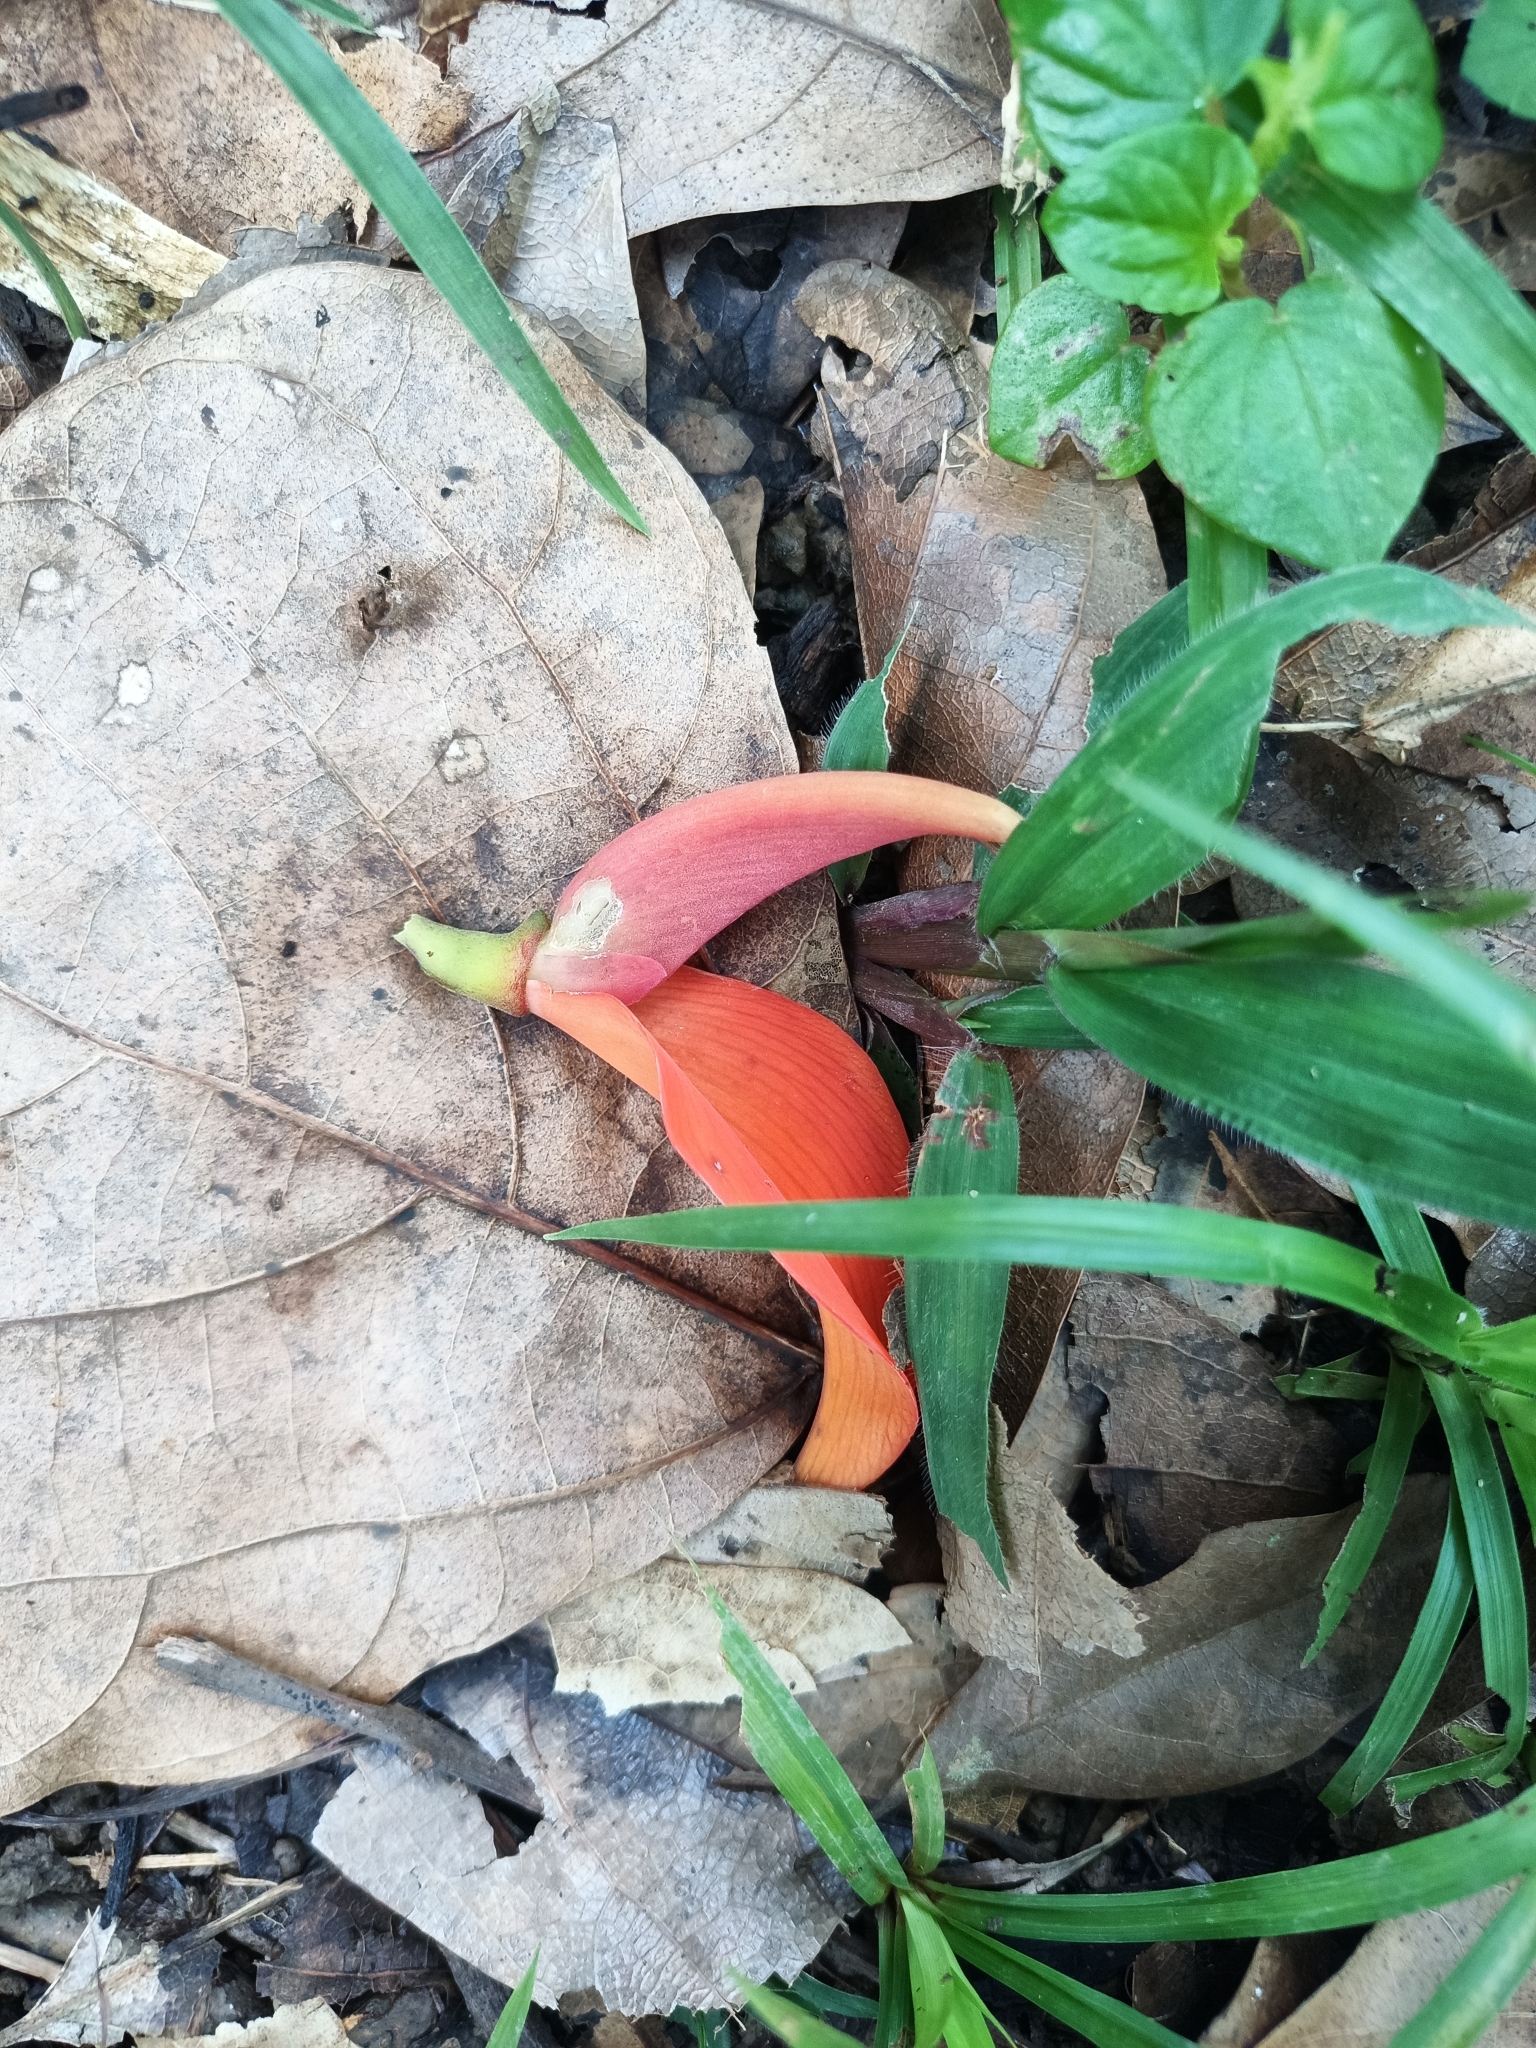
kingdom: Plantae
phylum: Tracheophyta
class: Magnoliopsida
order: Fabales
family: Fabaceae
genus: Erythrina
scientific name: Erythrina poeppigiana
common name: Coral tree
